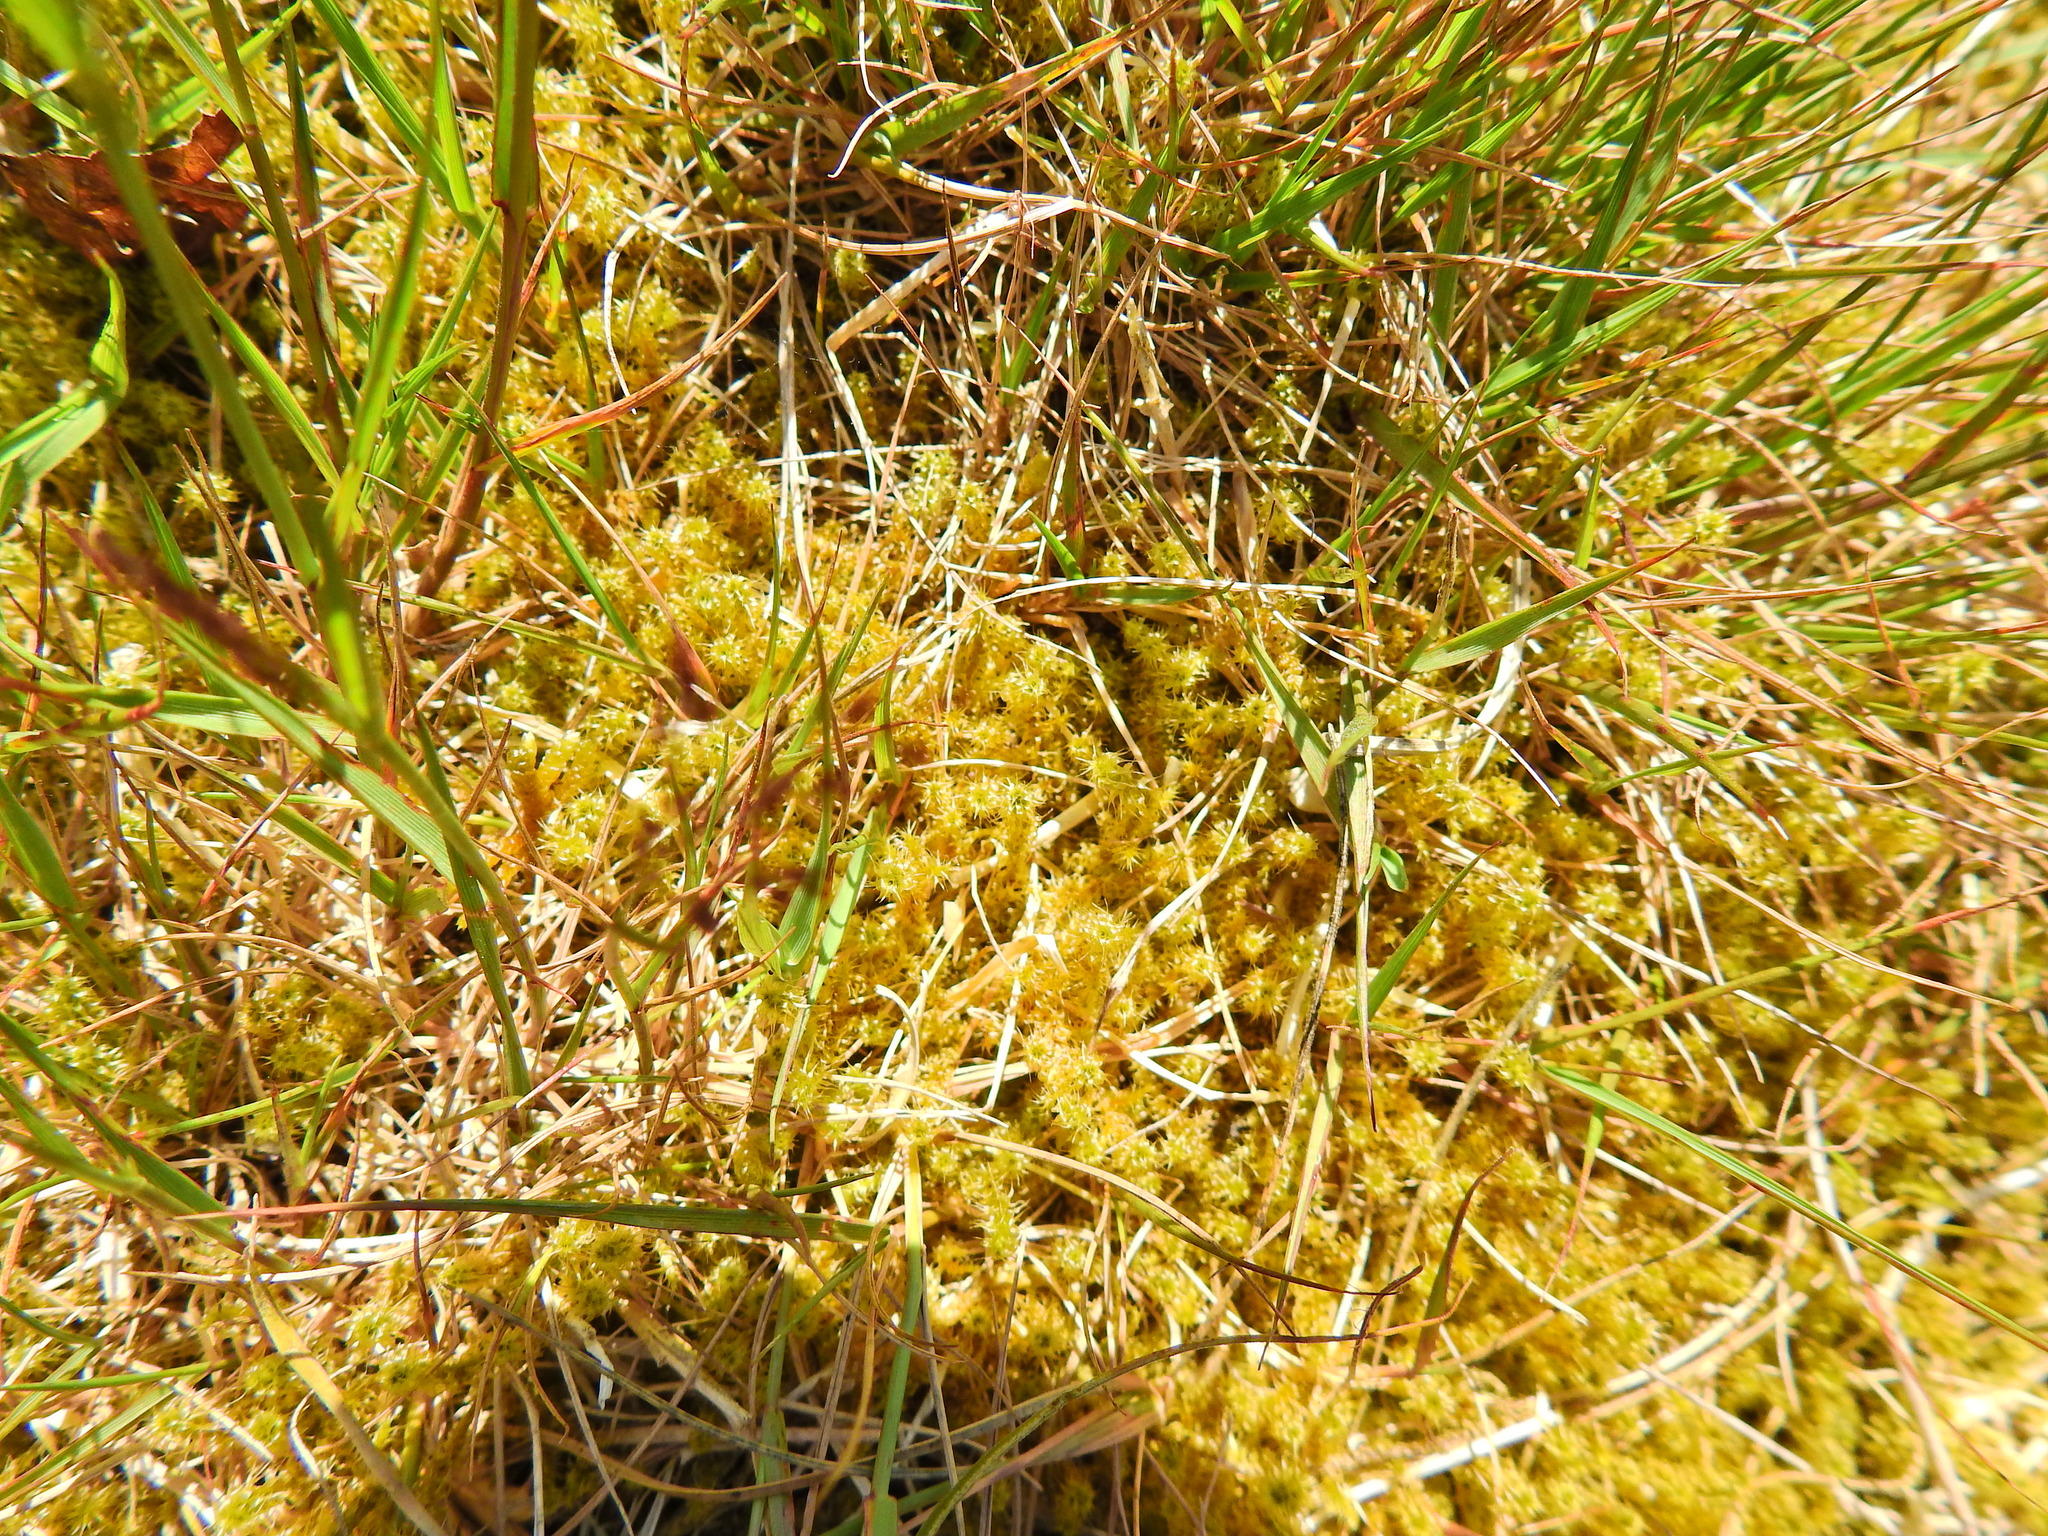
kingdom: Plantae
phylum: Bryophyta
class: Bryopsida
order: Hypnales
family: Hylocomiaceae
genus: Rhytidiadelphus
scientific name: Rhytidiadelphus squarrosus
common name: Springy turf-moss
